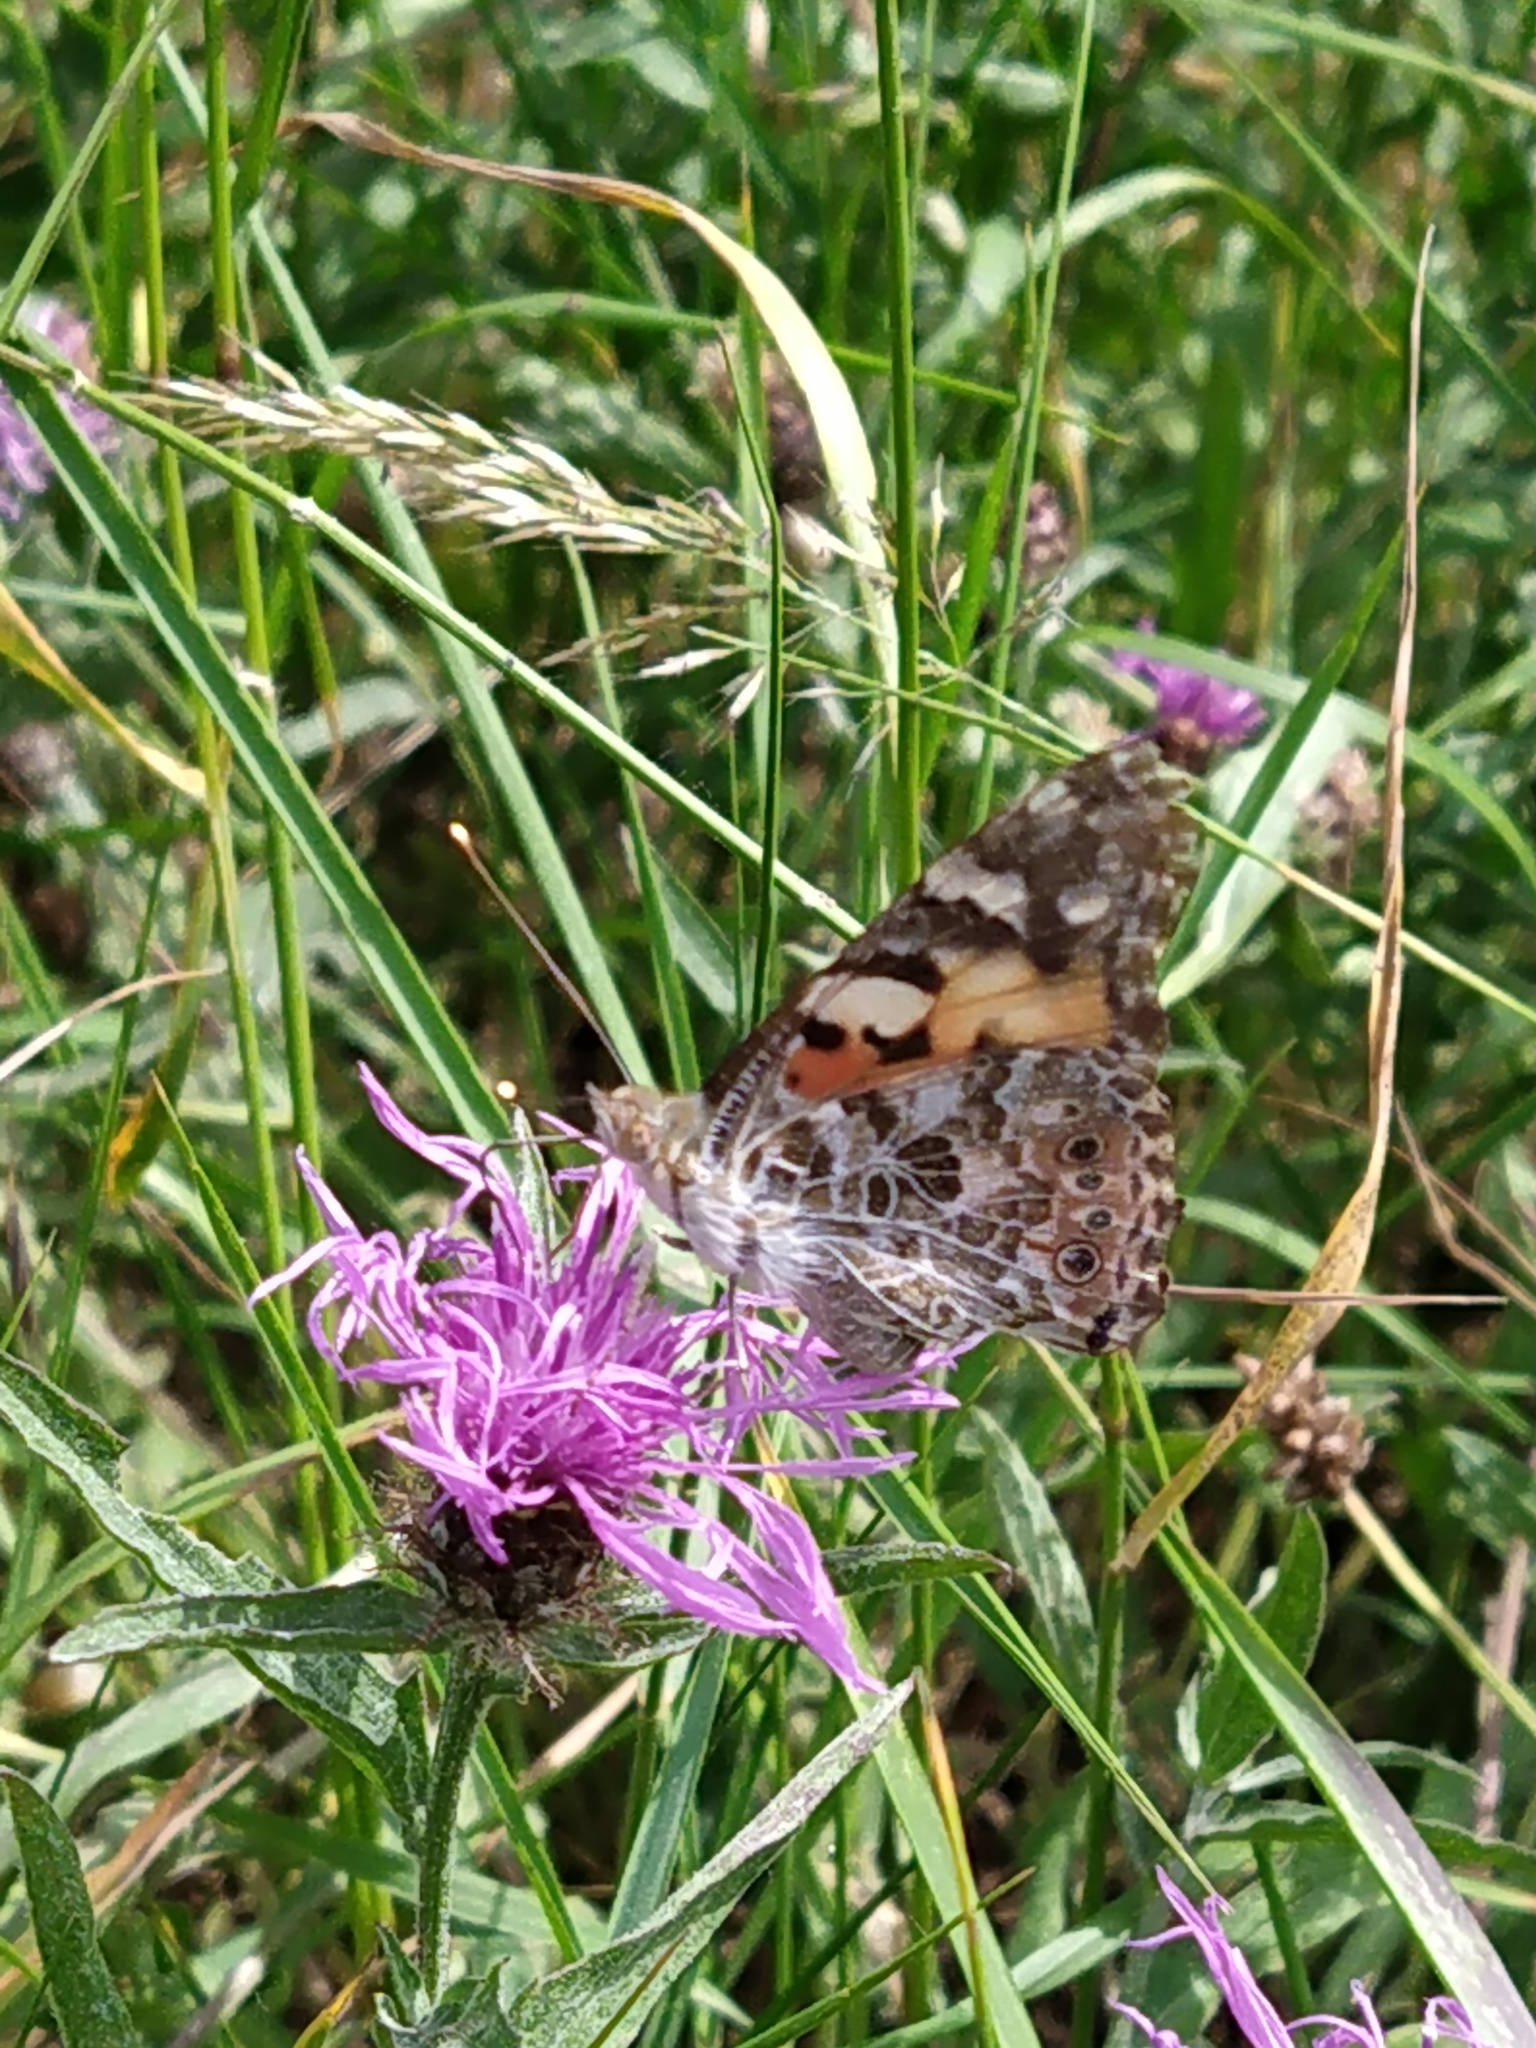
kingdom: Animalia
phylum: Arthropoda
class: Insecta
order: Lepidoptera
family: Nymphalidae
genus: Vanessa
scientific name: Vanessa cardui
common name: Painted lady
